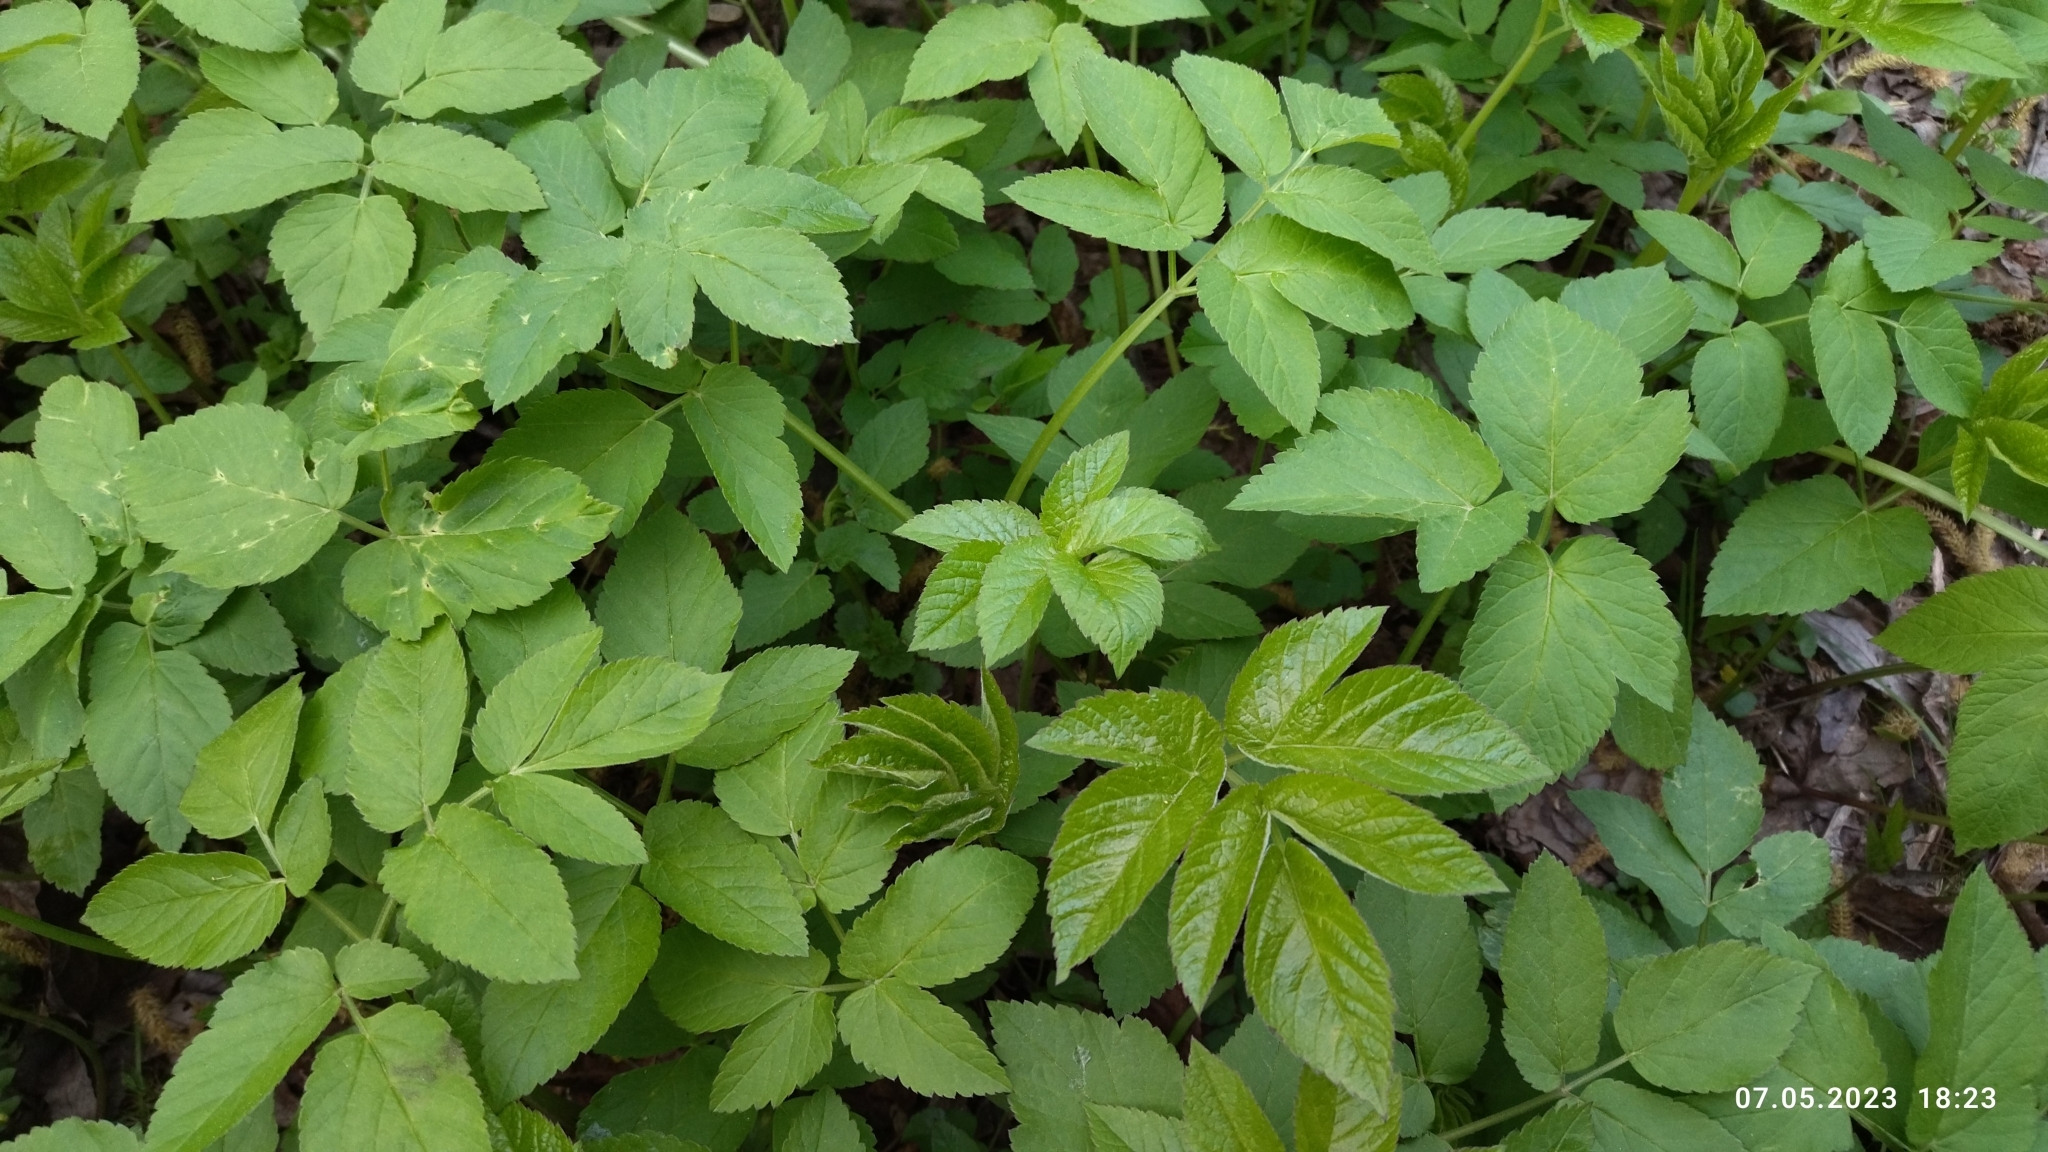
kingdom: Plantae
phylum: Tracheophyta
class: Magnoliopsida
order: Apiales
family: Apiaceae
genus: Aegopodium
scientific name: Aegopodium podagraria
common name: Ground-elder
